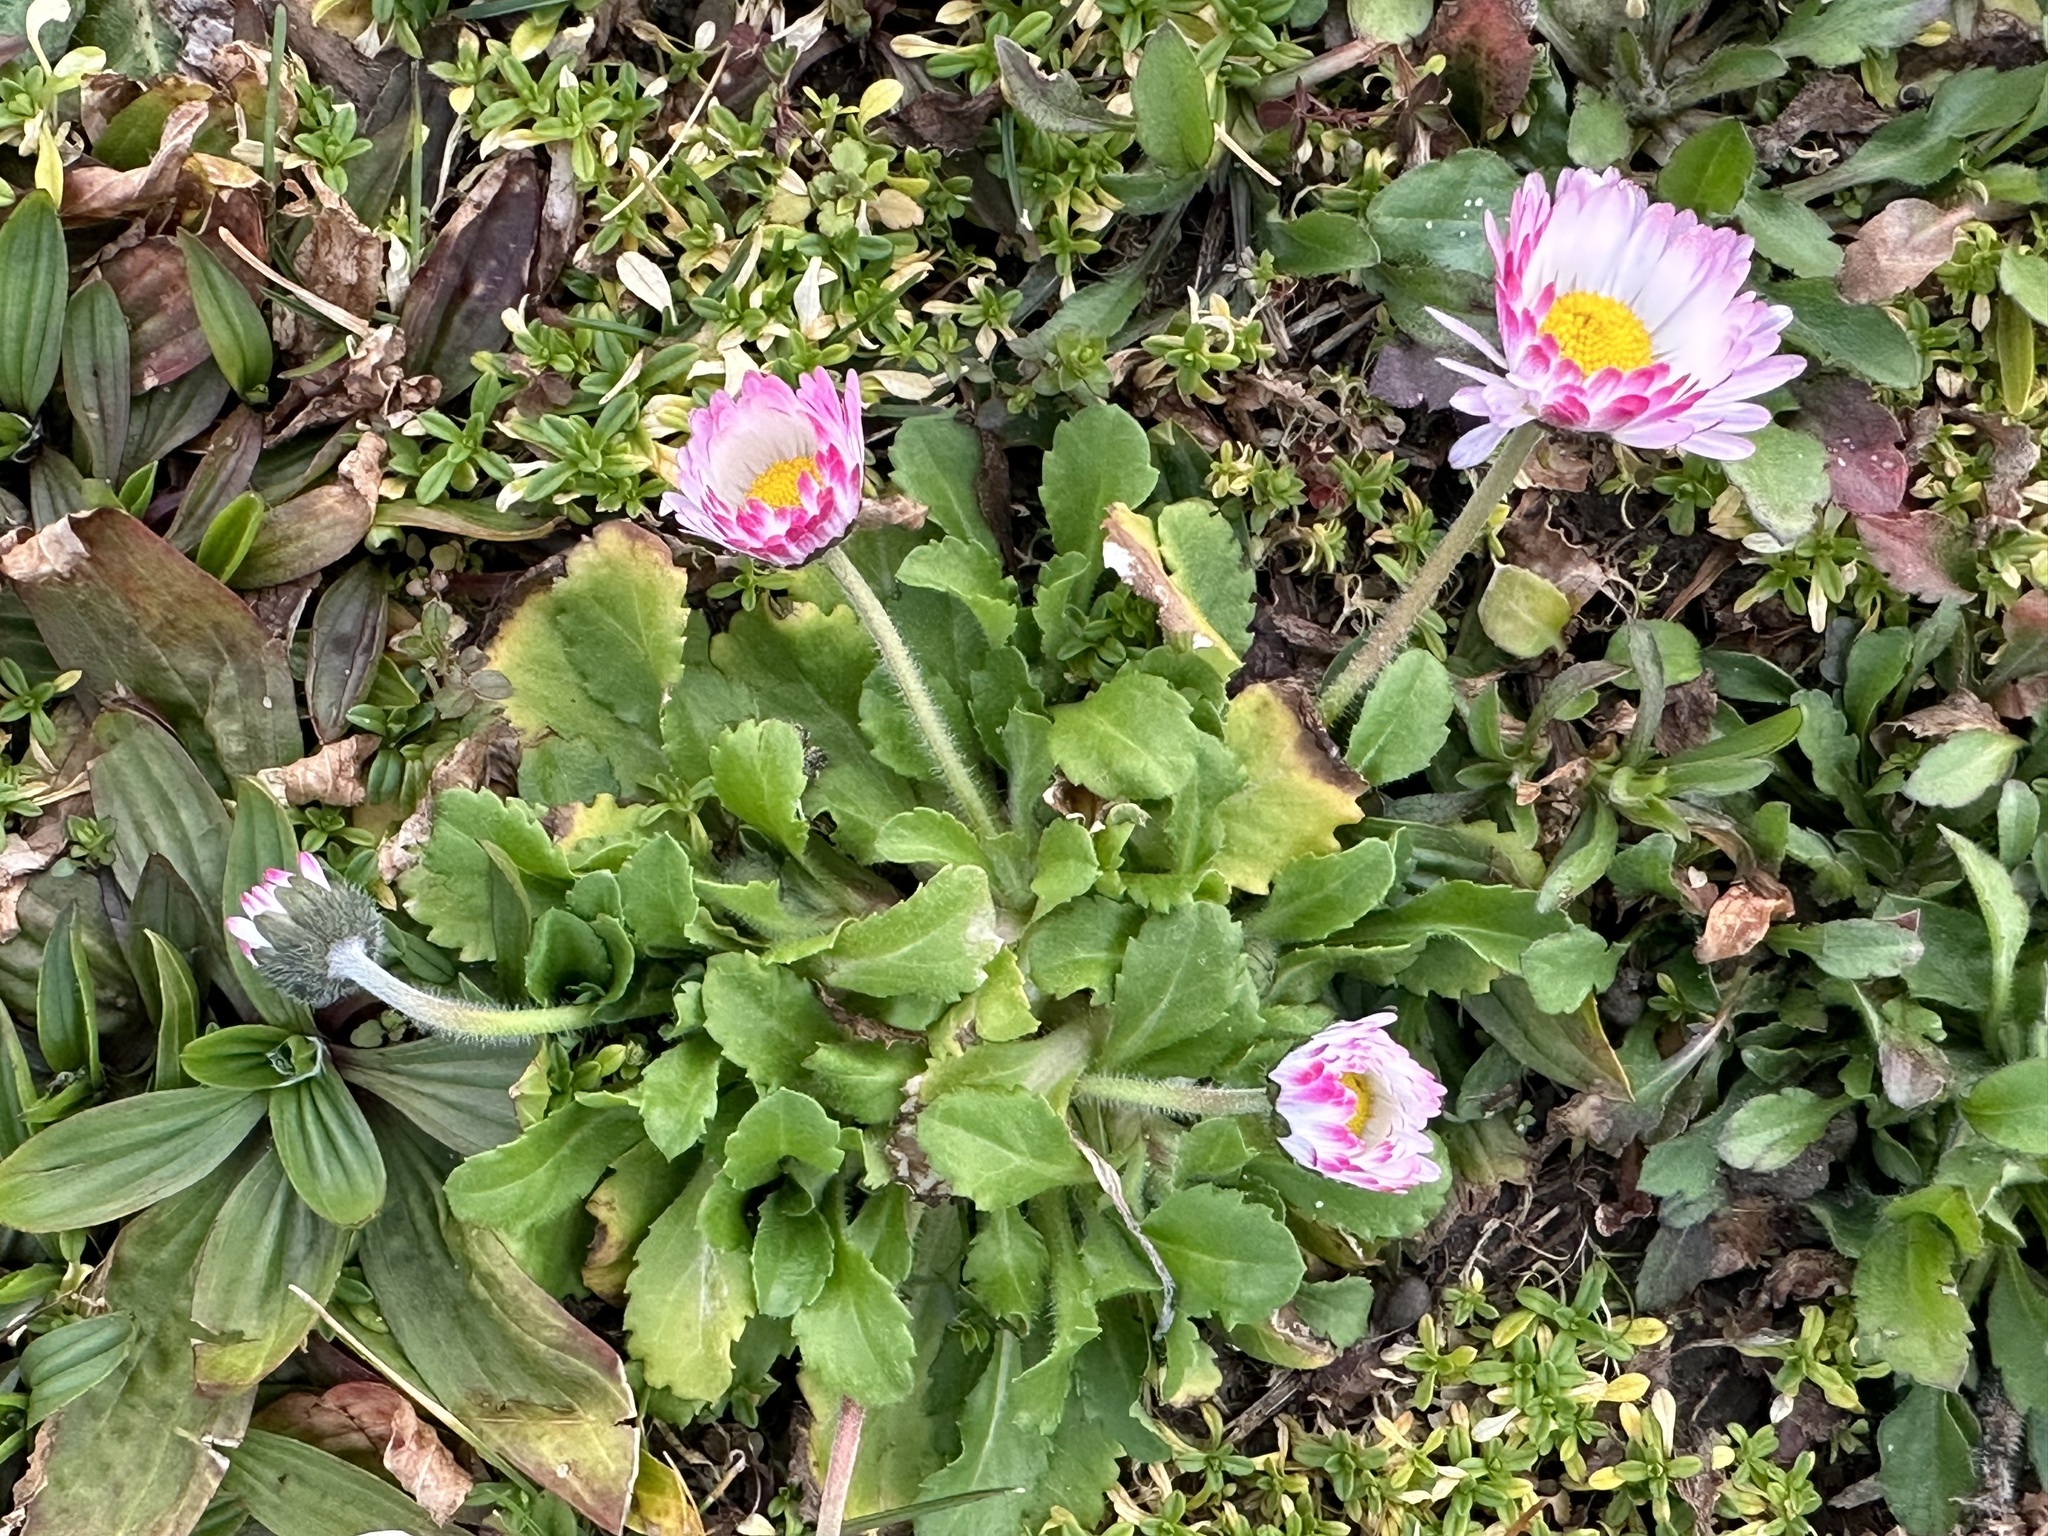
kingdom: Plantae
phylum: Tracheophyta
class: Magnoliopsida
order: Asterales
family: Asteraceae
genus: Bellis
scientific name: Bellis perennis
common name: Lawndaisy
